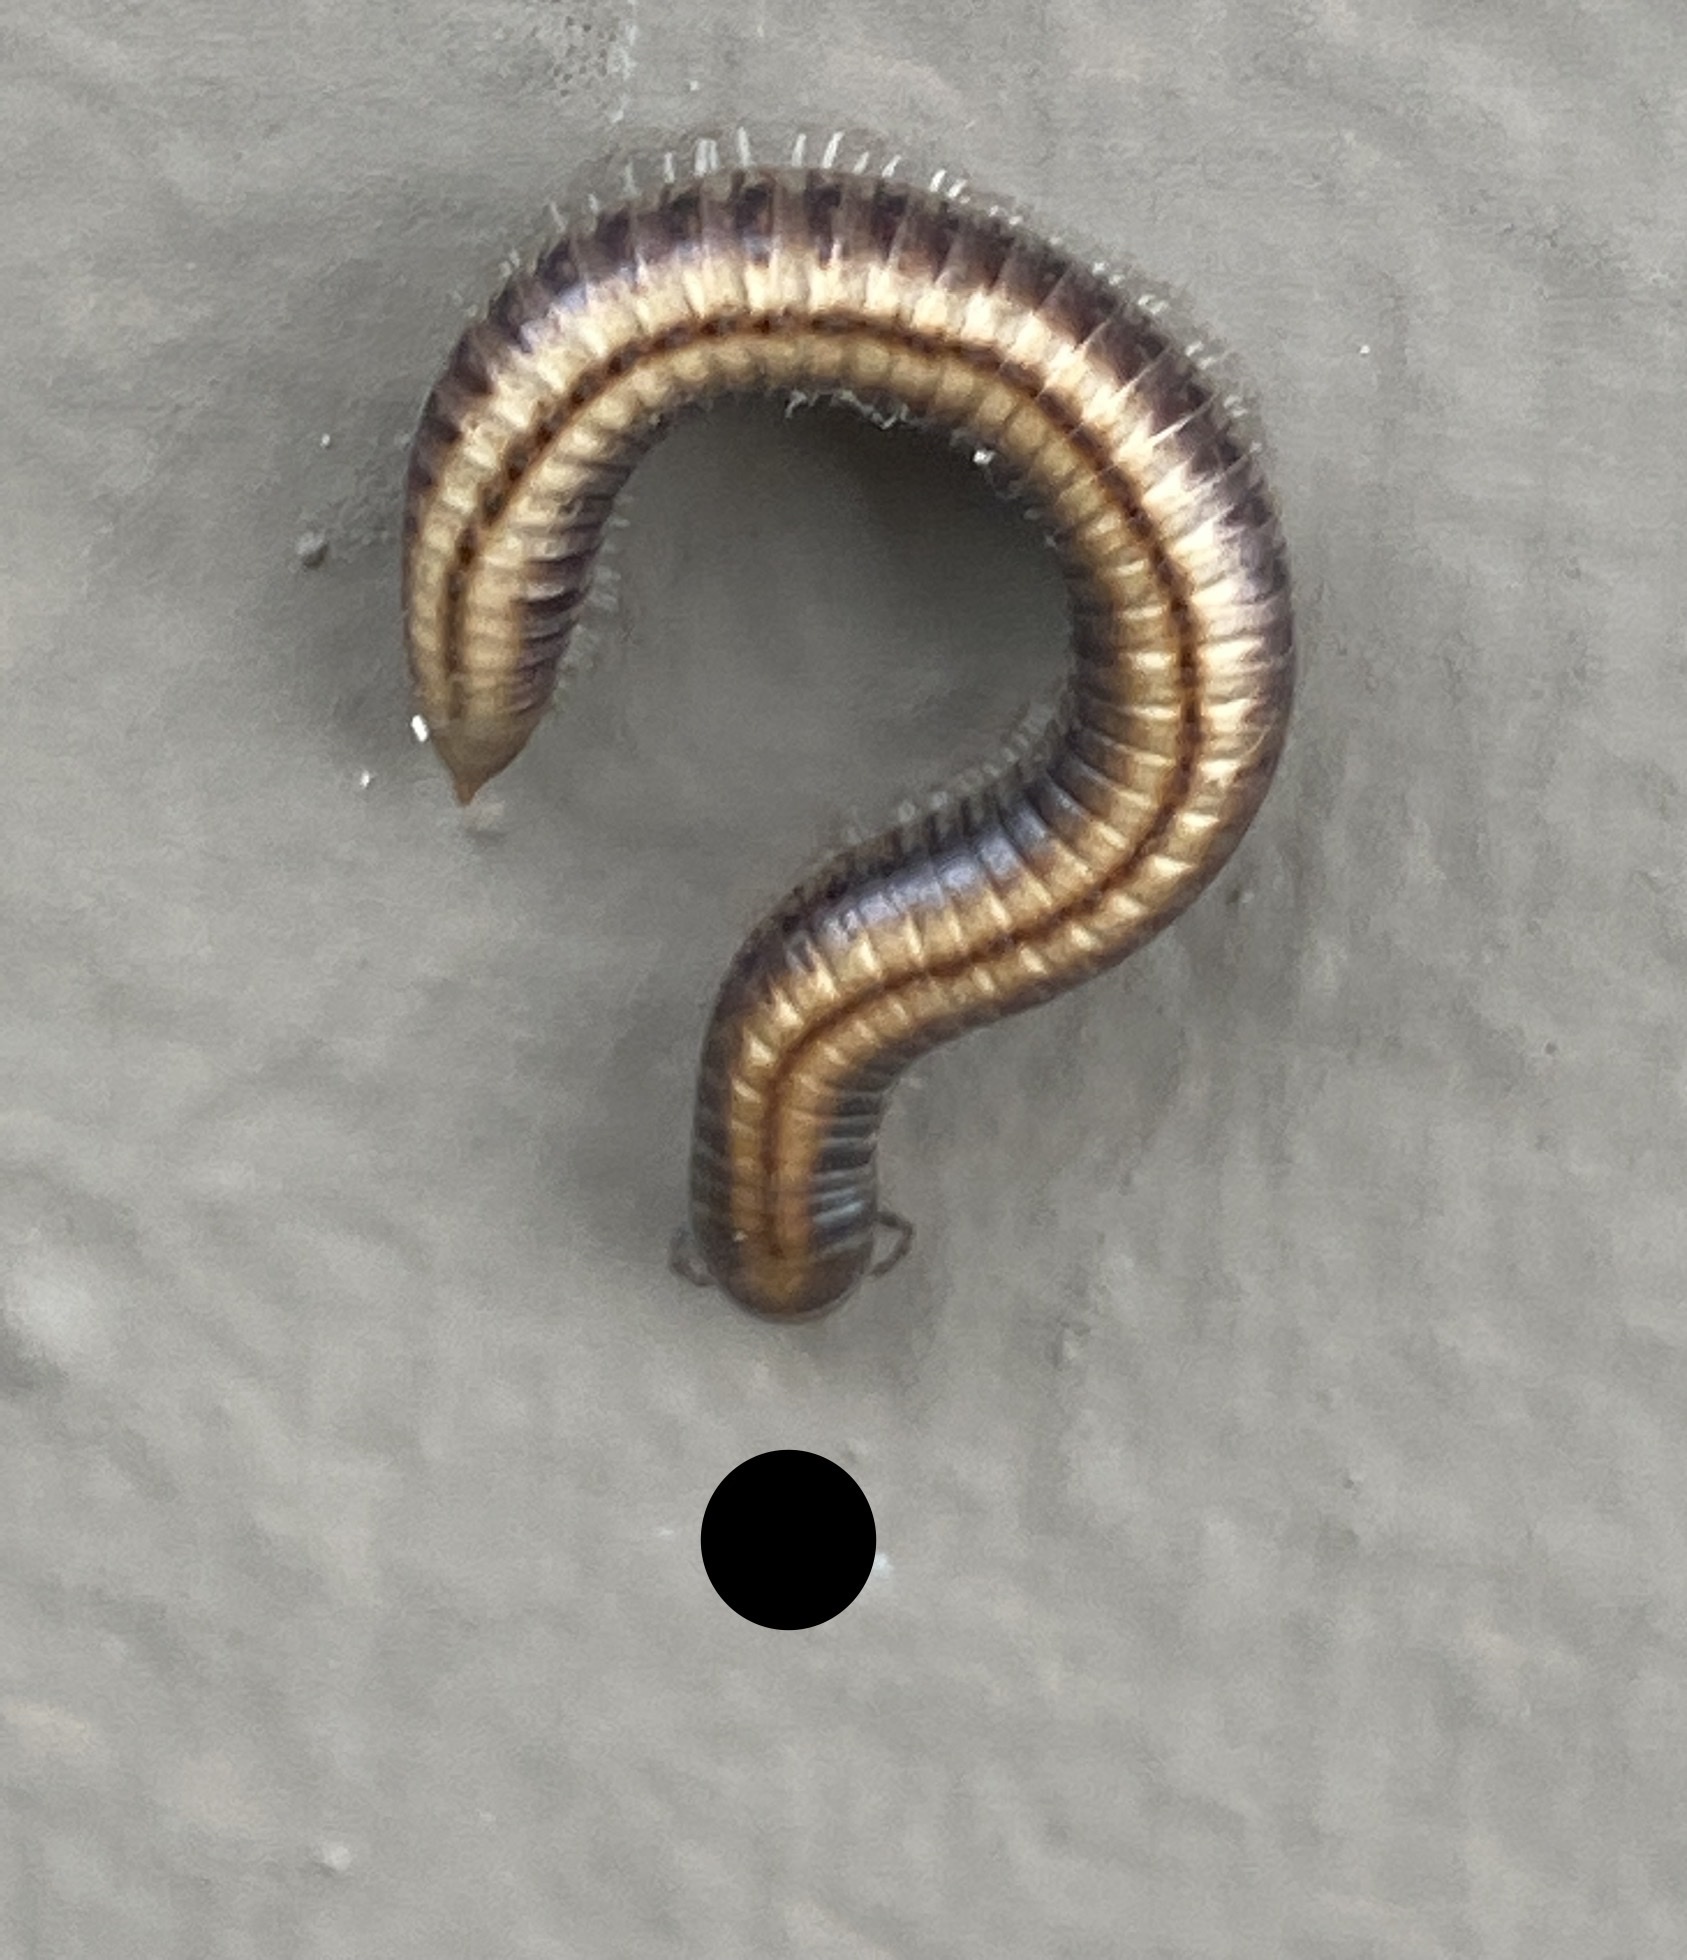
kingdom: Animalia
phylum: Arthropoda
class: Diplopoda
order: Julida
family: Julidae
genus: Ommatoiulus
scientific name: Ommatoiulus sabulosus
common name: Striped millipede
